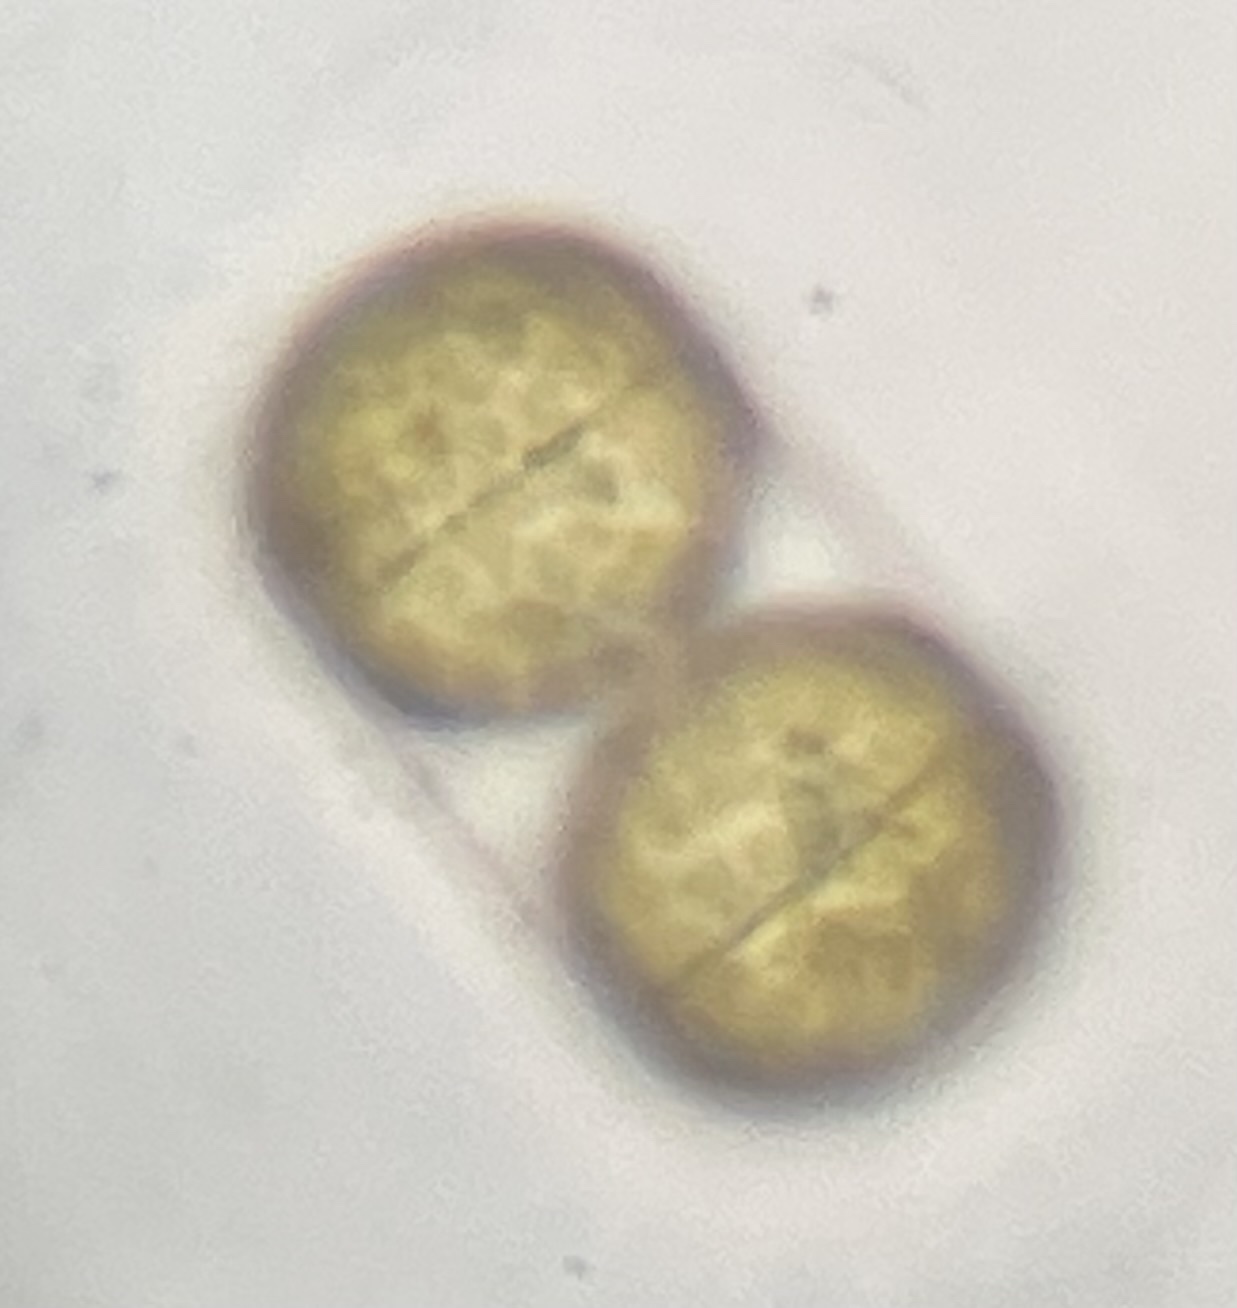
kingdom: Chromista
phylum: Ochrophyta
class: Bacillariophyceae
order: Melosirales
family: Melosiraceae
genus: Melosira
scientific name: Melosira moniliformis
